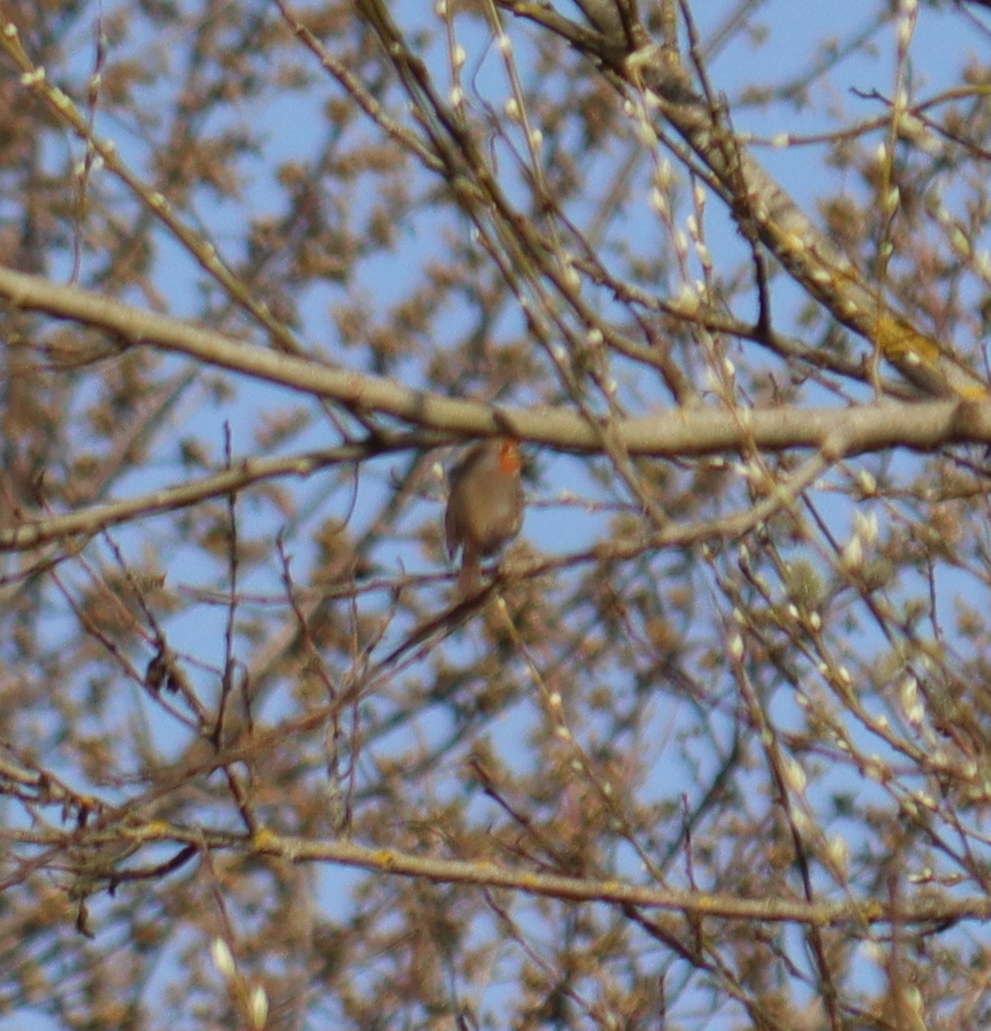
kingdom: Animalia
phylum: Chordata
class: Aves
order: Passeriformes
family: Muscicapidae
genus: Erithacus
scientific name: Erithacus rubecula
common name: European robin
